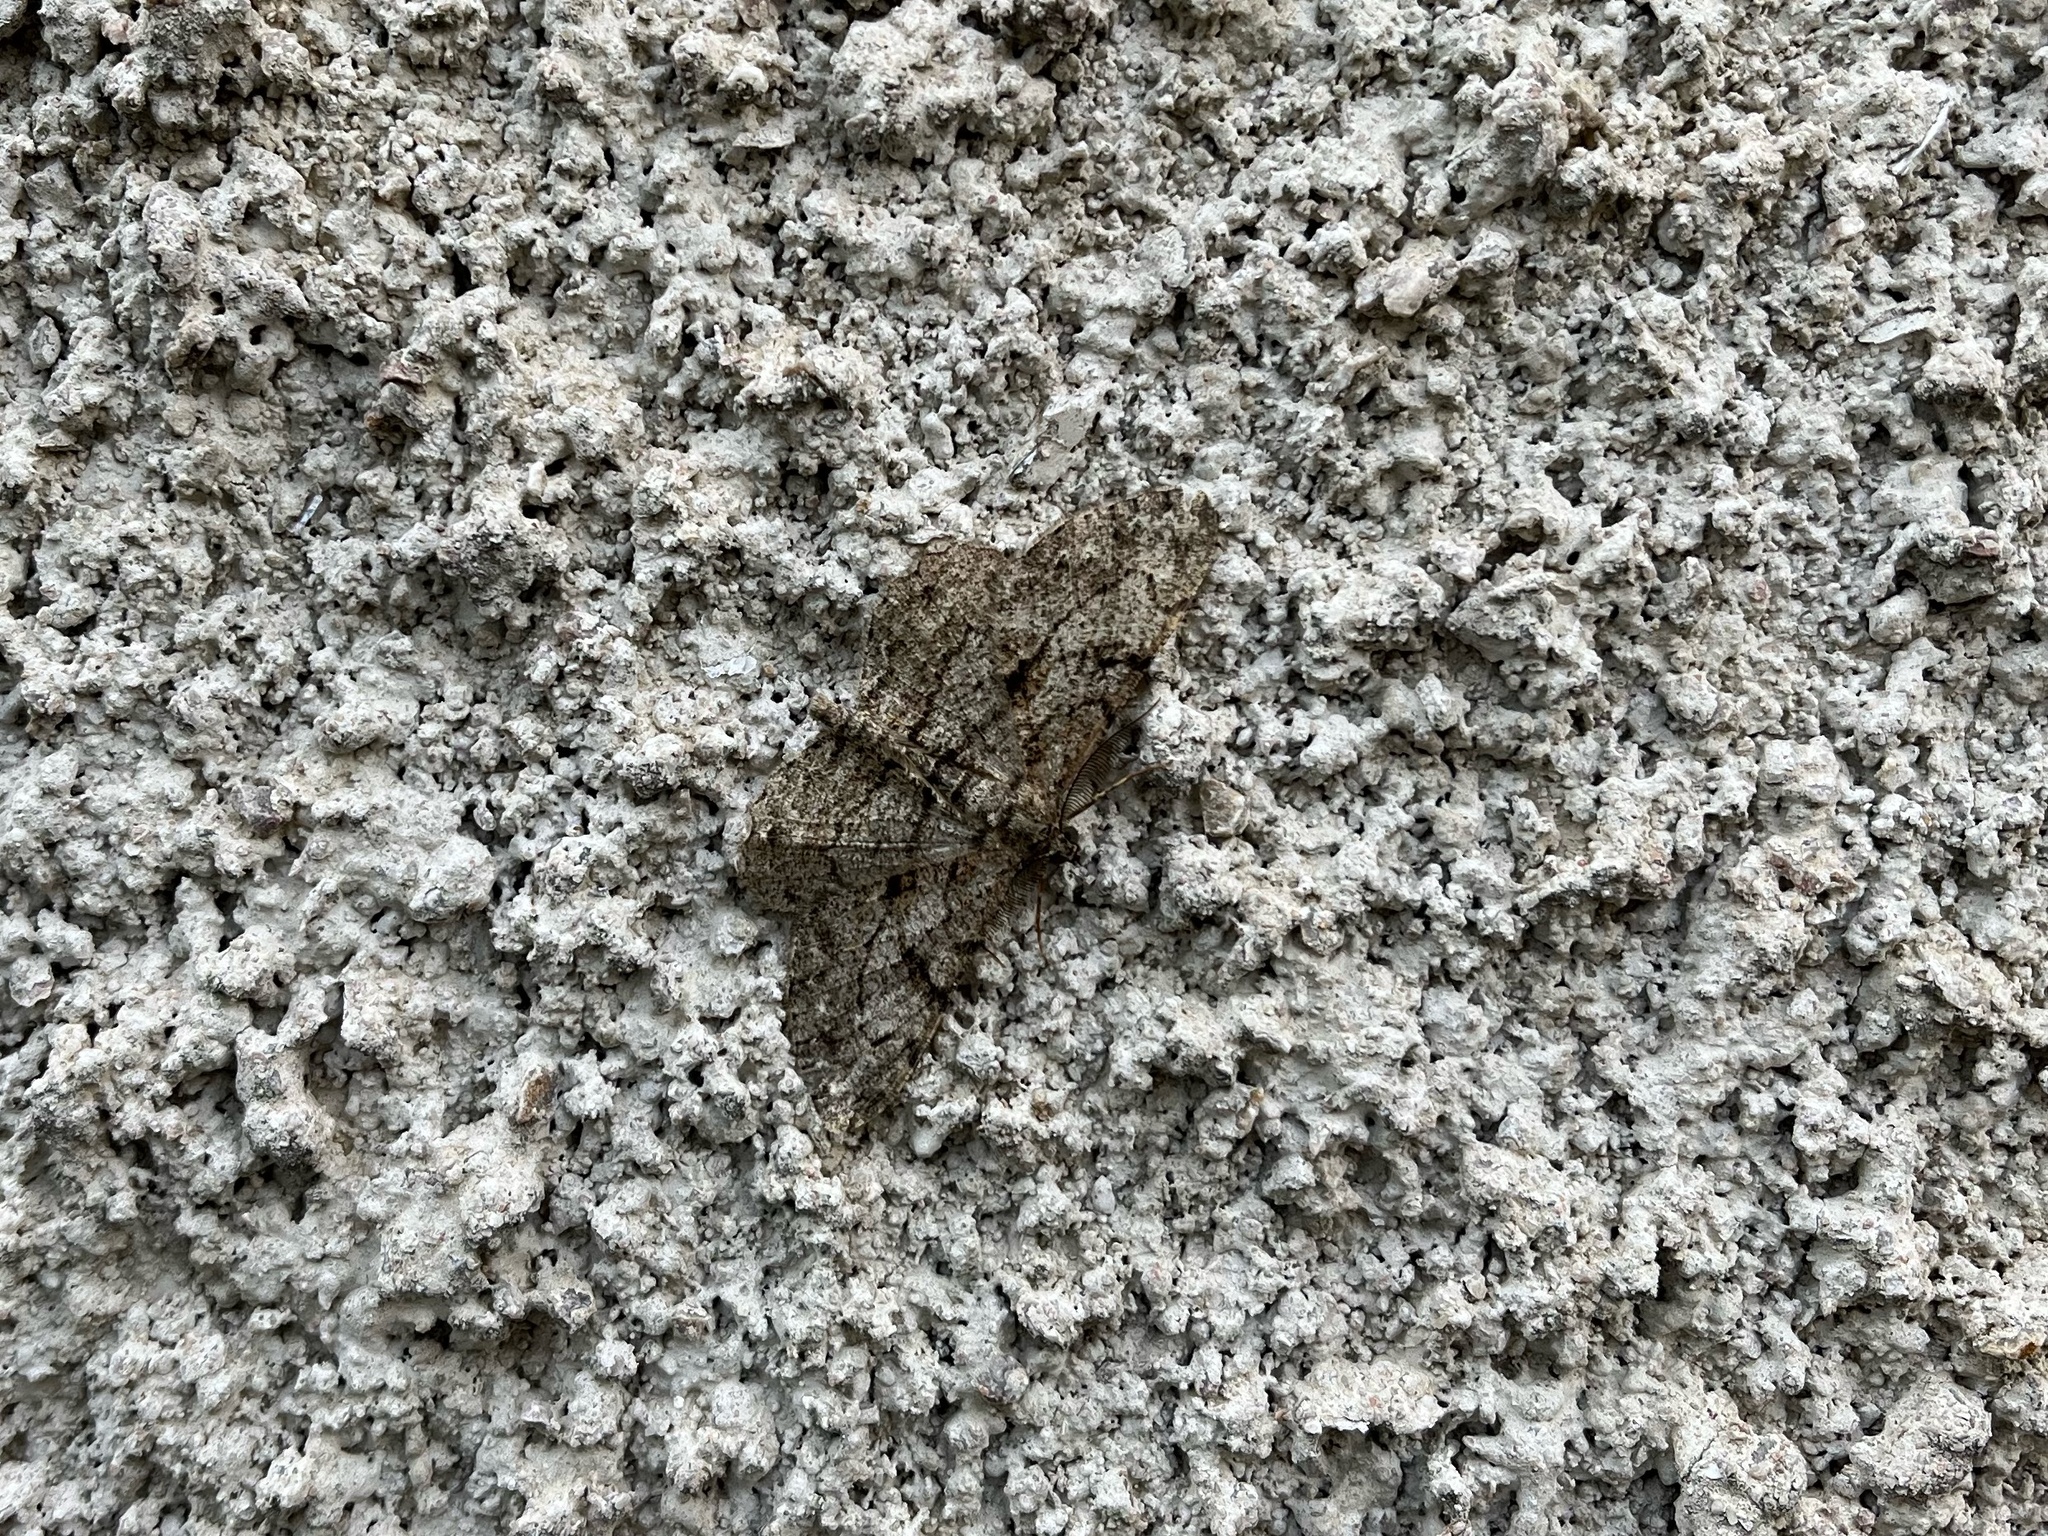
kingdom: Animalia
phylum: Arthropoda
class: Insecta
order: Lepidoptera
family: Geometridae
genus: Peribatodes
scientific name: Peribatodes rhomboidaria
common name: Willow beauty
